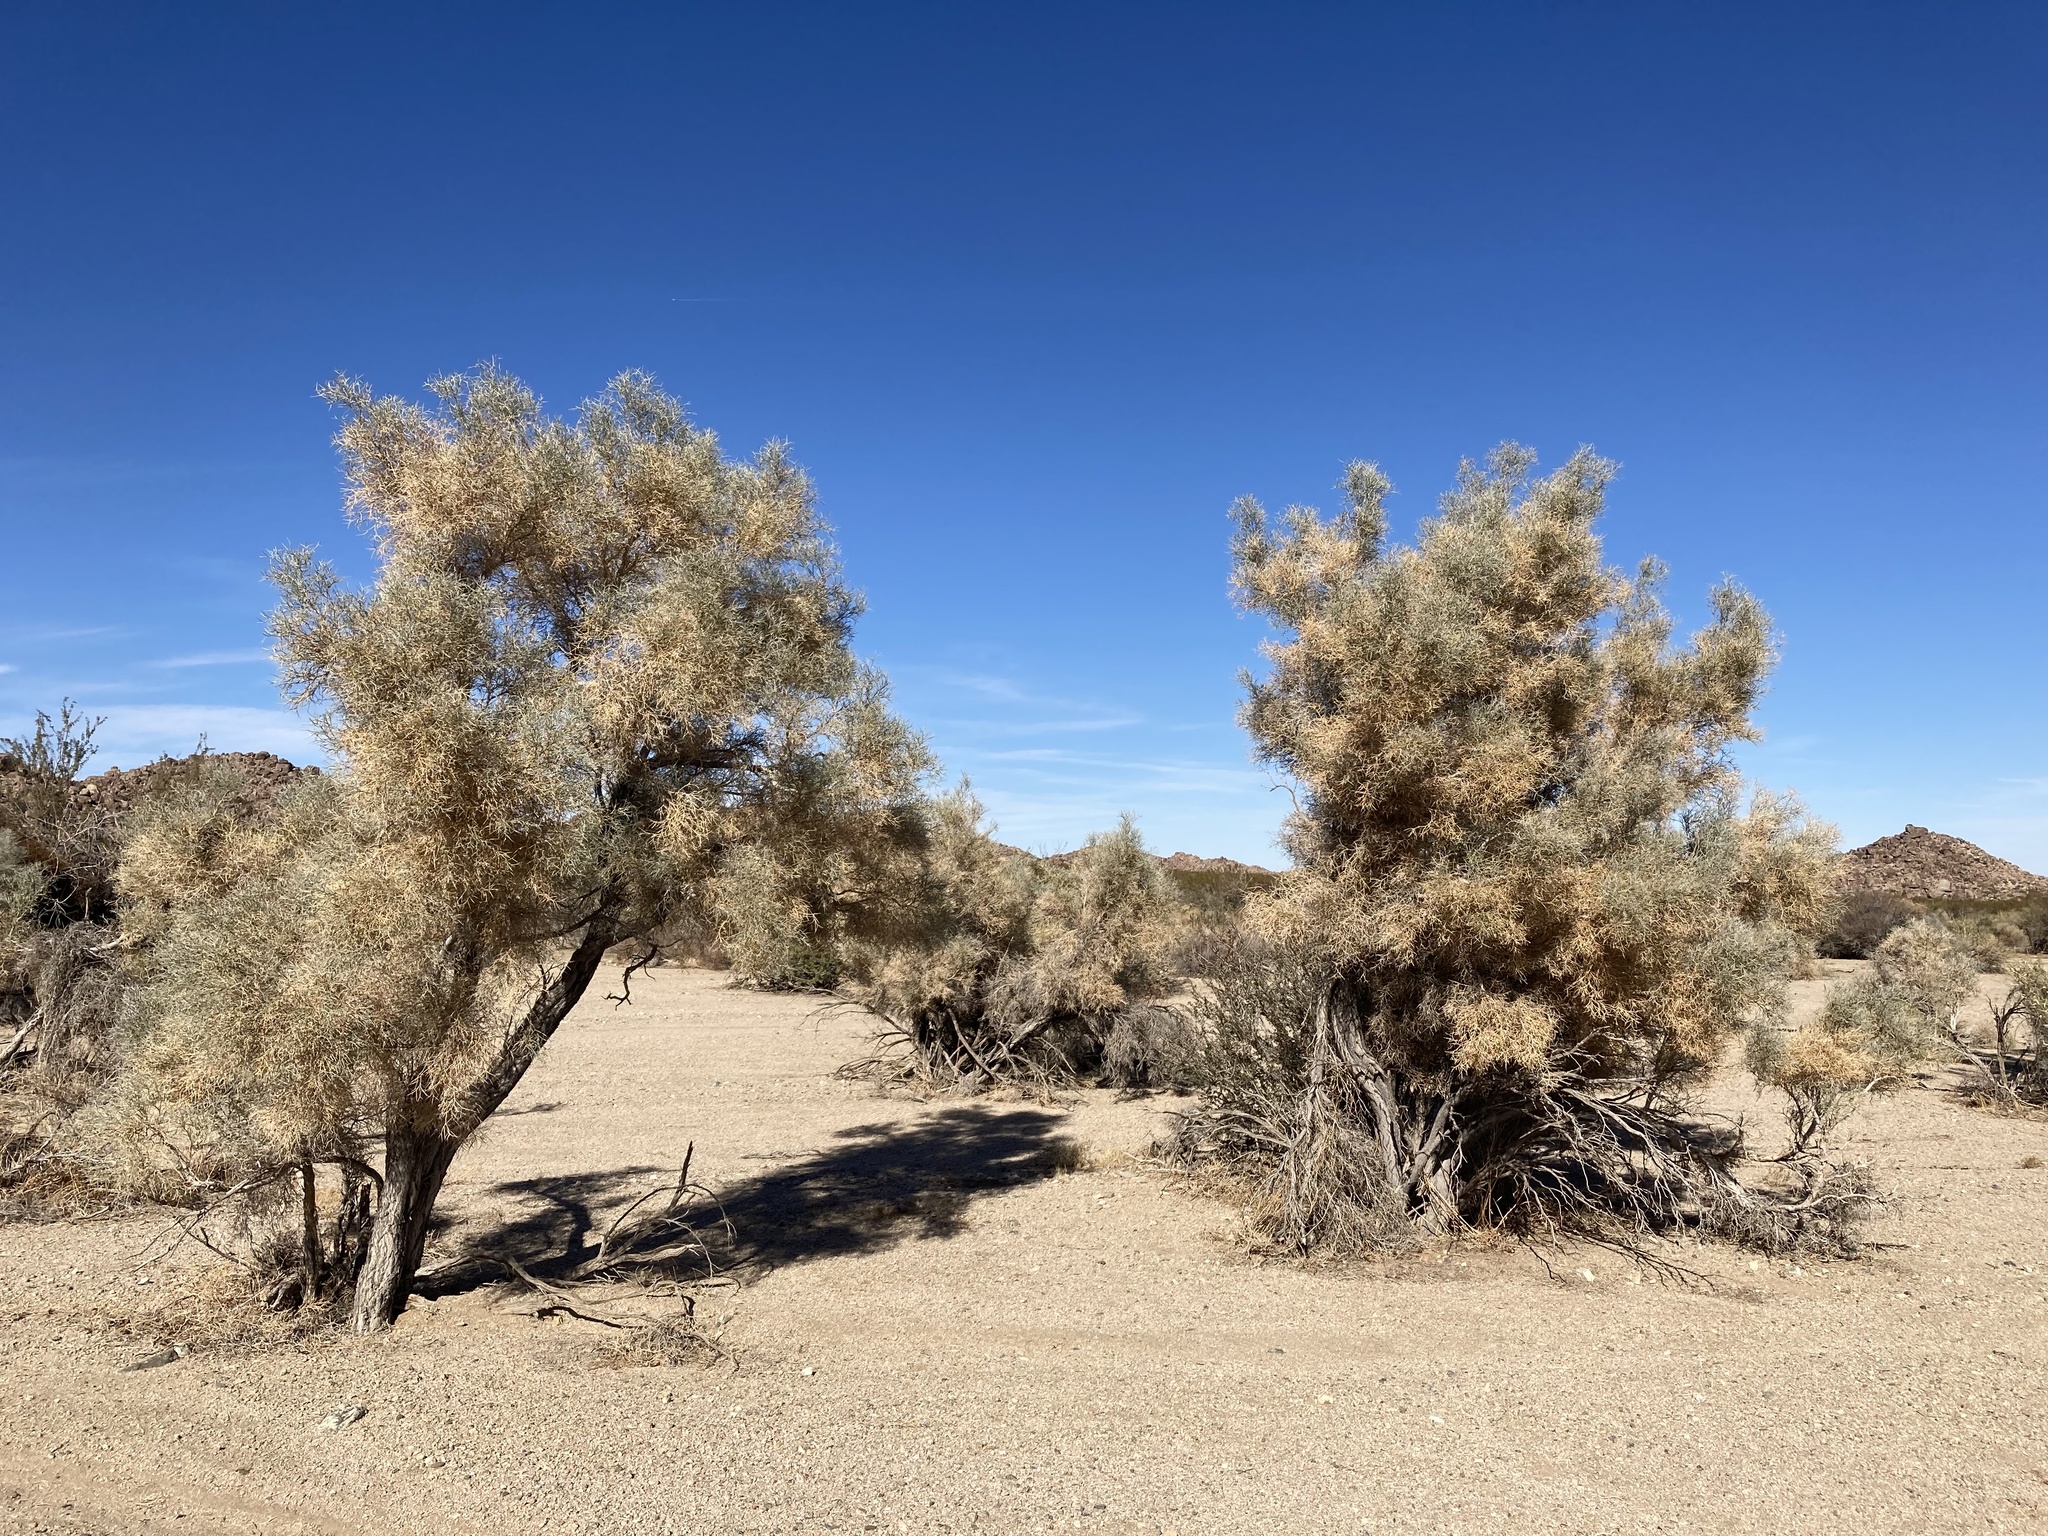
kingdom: Plantae
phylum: Tracheophyta
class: Magnoliopsida
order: Fabales
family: Fabaceae
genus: Psorothamnus
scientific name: Psorothamnus spinosus
